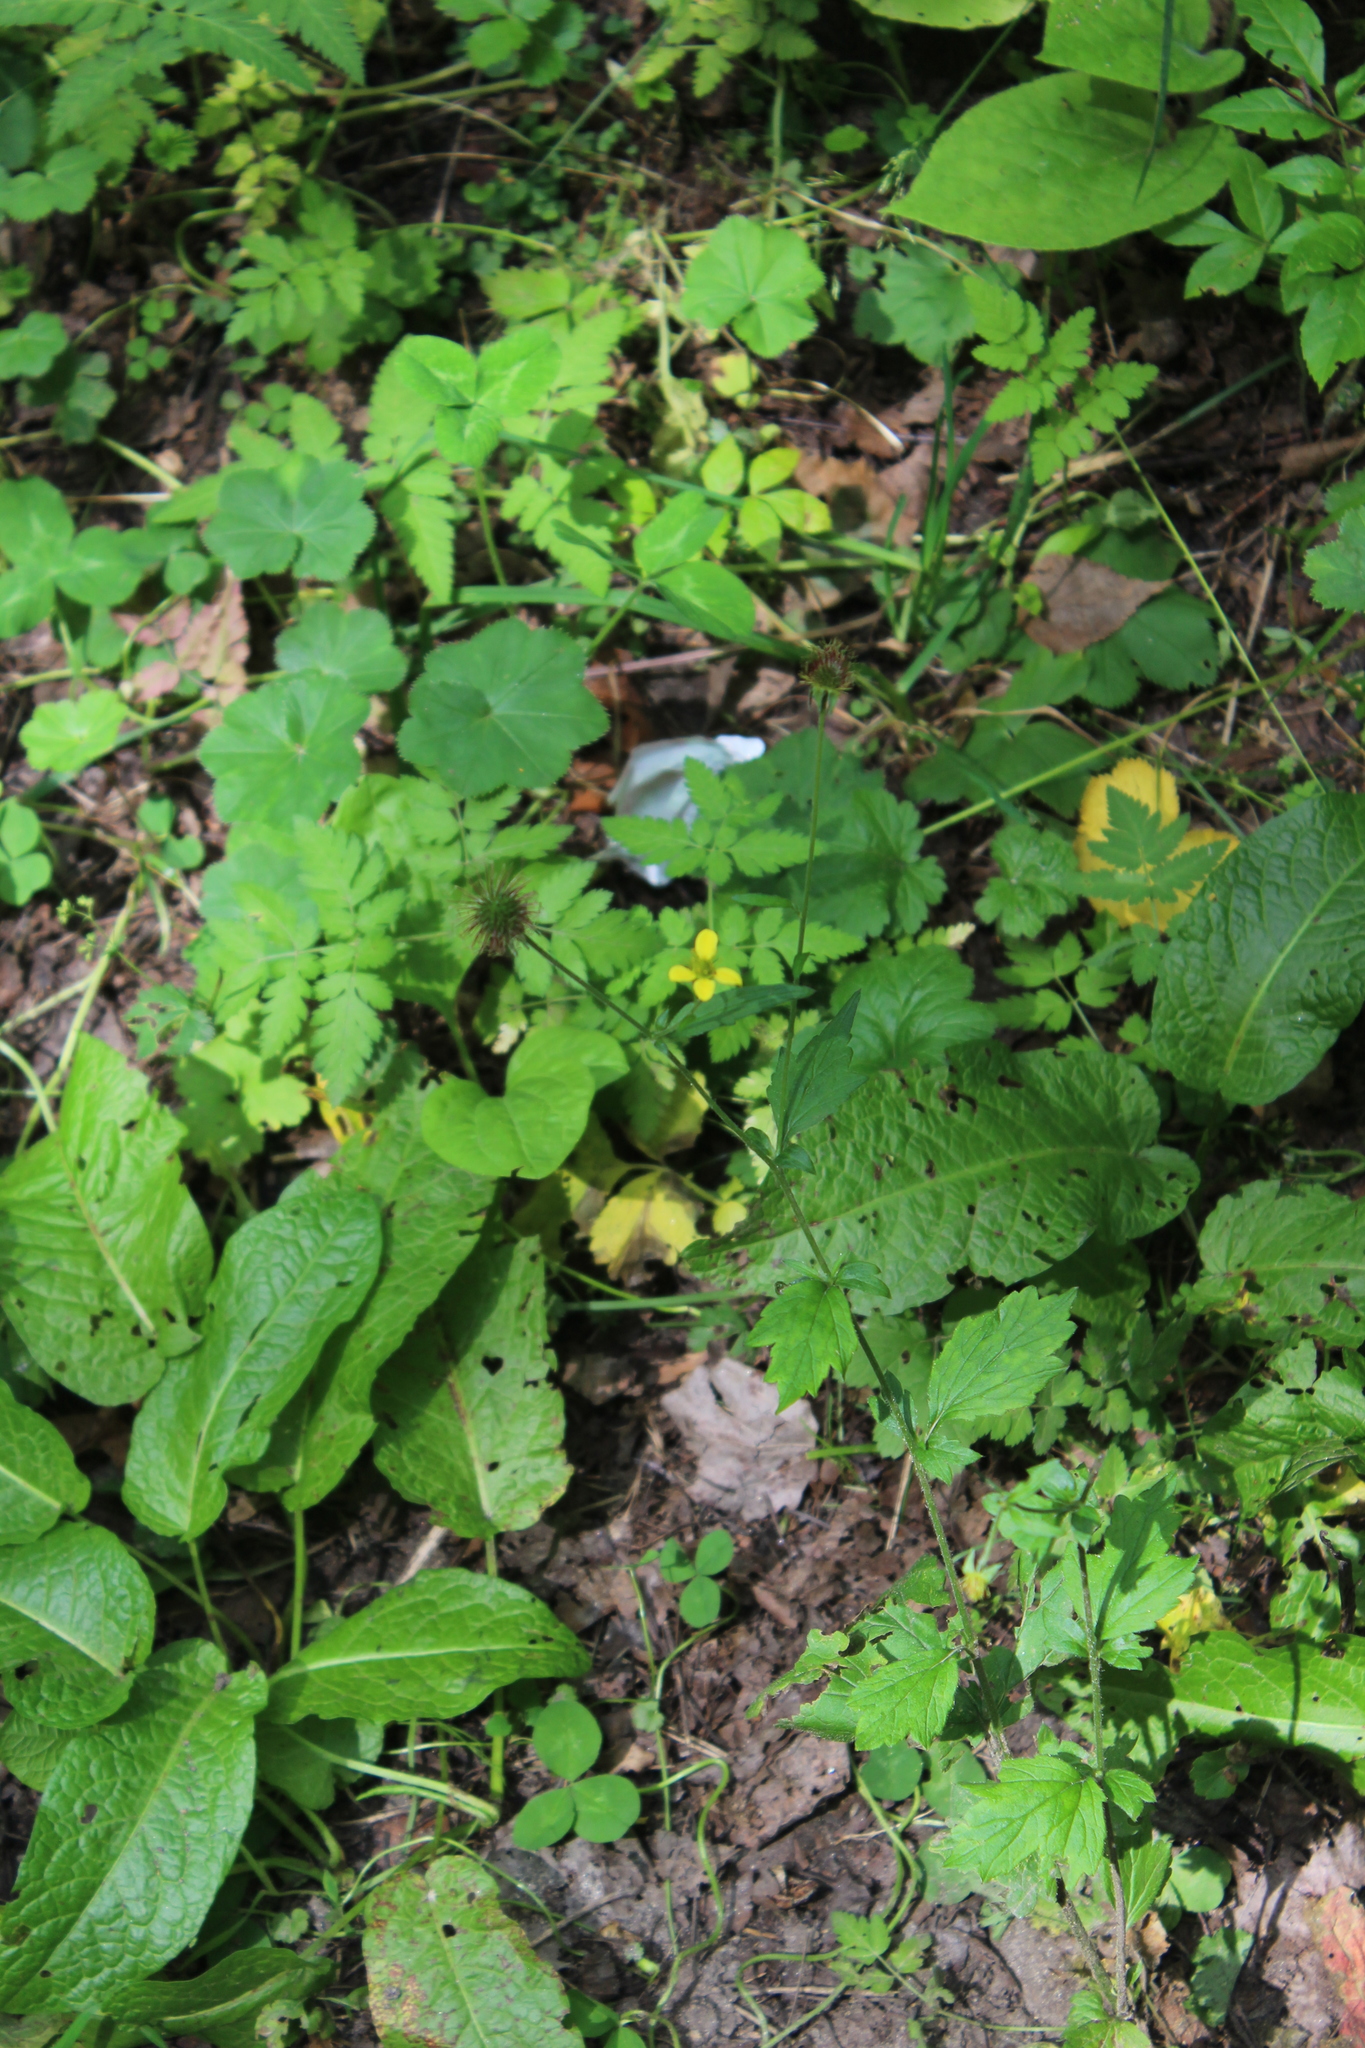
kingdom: Plantae
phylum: Tracheophyta
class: Magnoliopsida
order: Rosales
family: Rosaceae
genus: Geum
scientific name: Geum urbanum
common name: Wood avens
